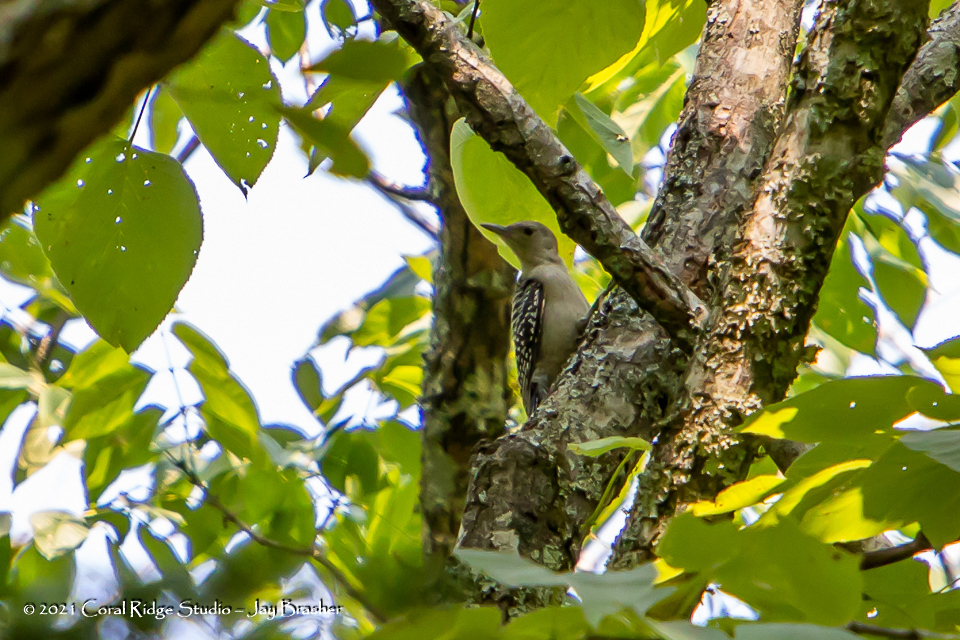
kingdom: Animalia
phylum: Chordata
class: Aves
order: Piciformes
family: Picidae
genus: Melanerpes
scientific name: Melanerpes carolinus
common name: Red-bellied woodpecker
